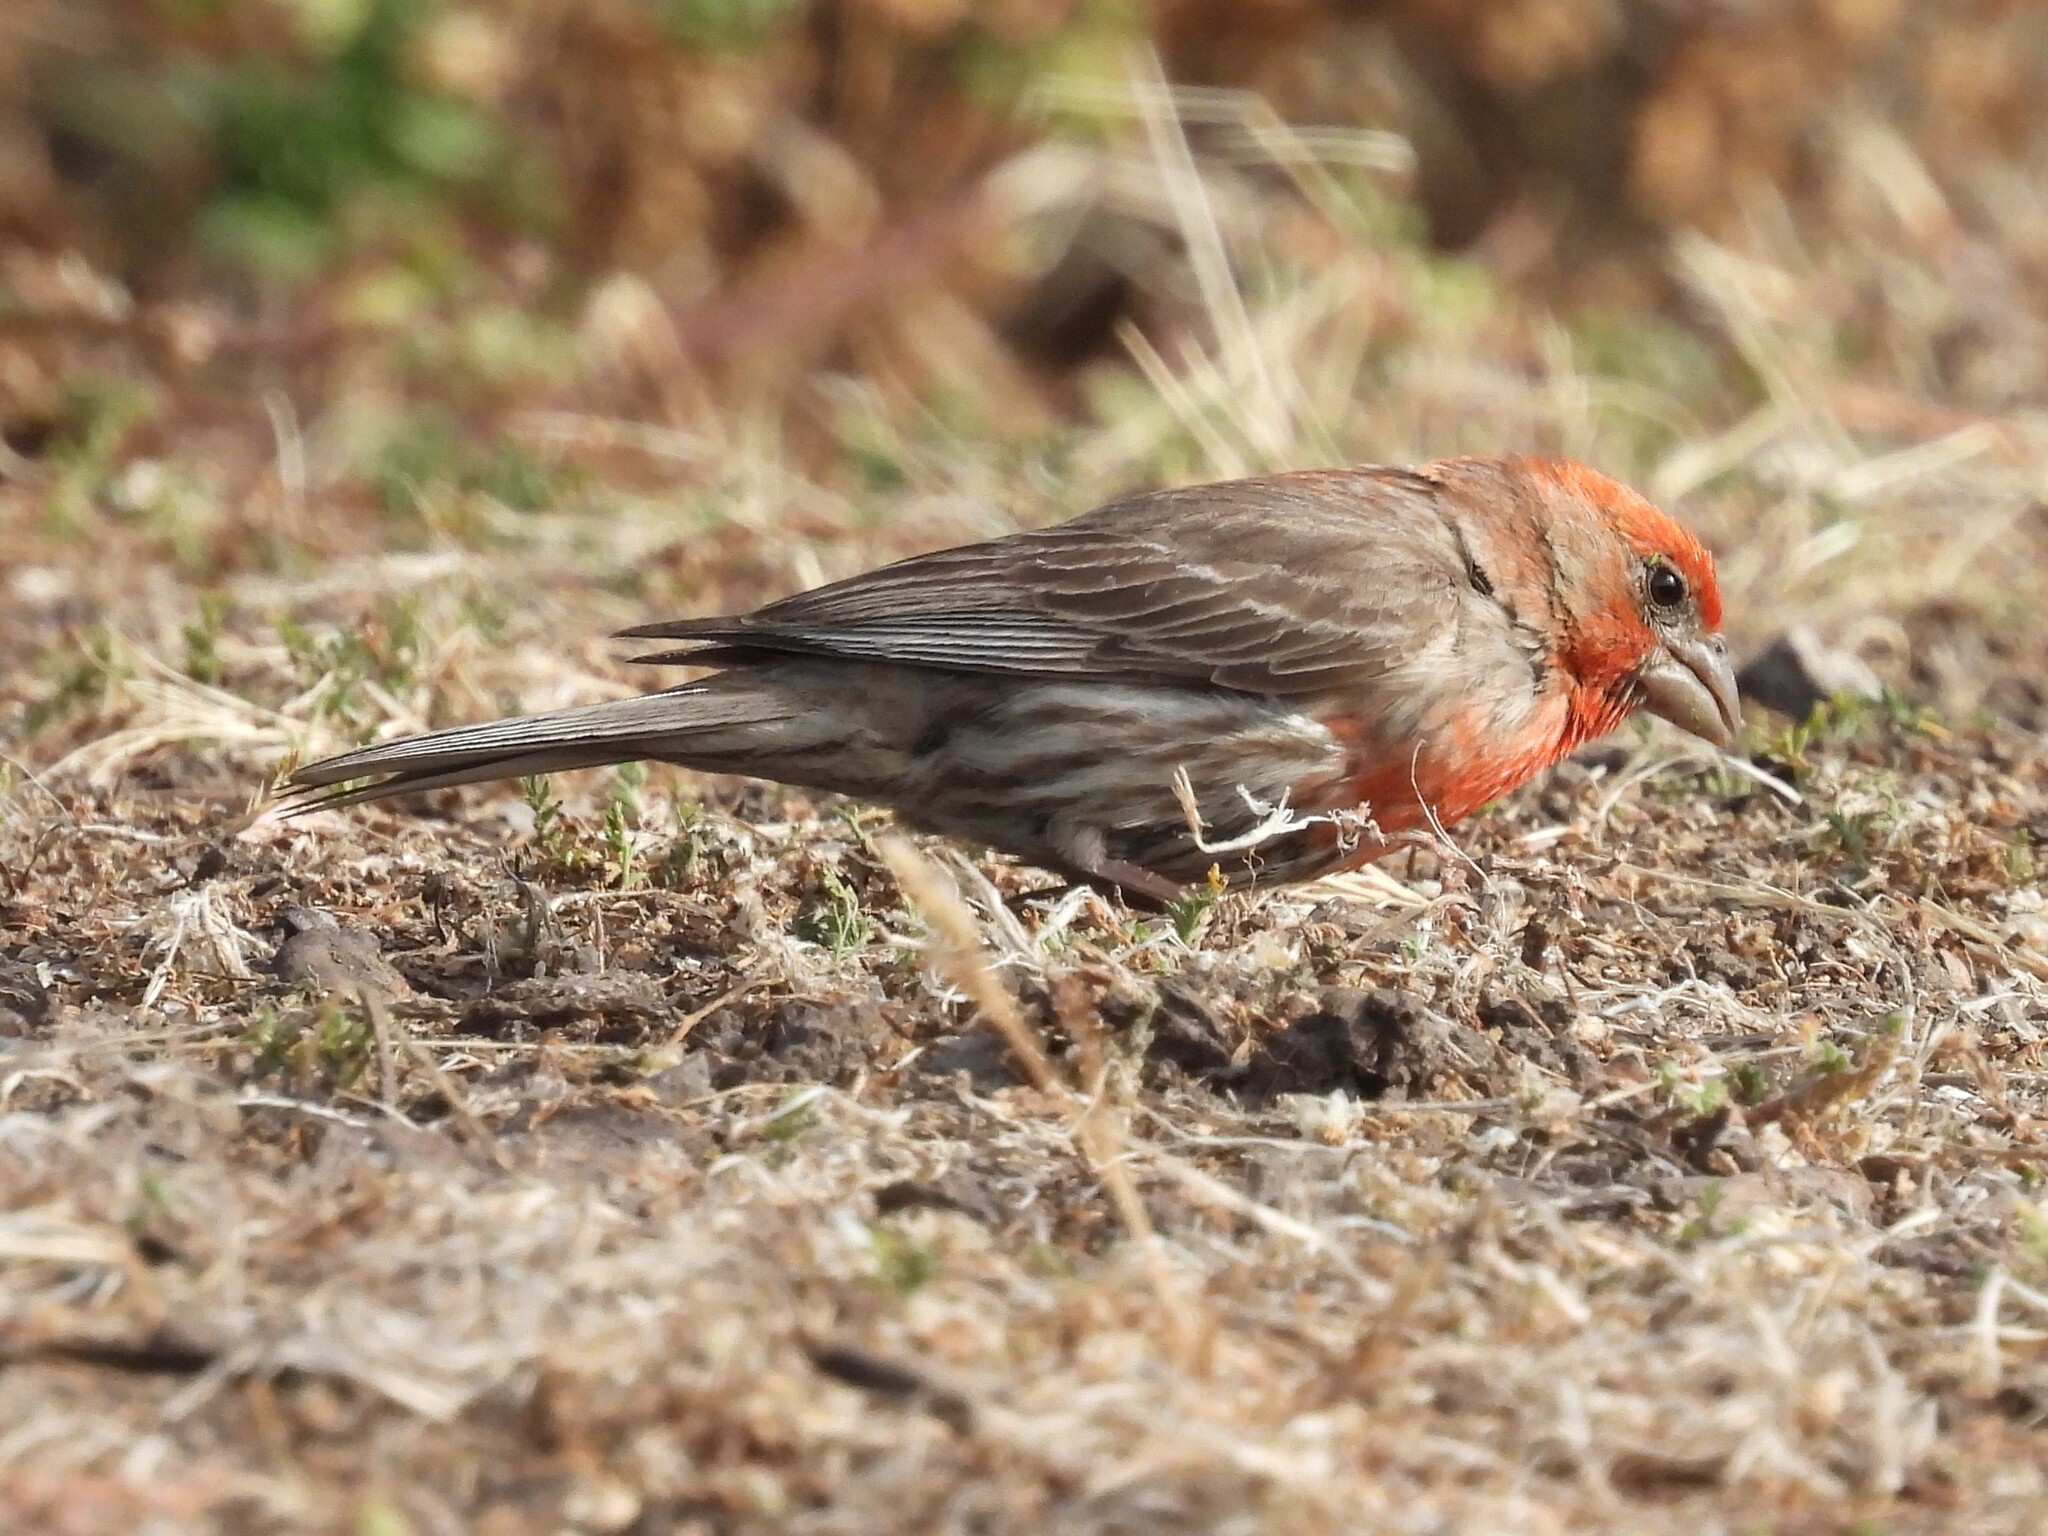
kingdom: Animalia
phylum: Chordata
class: Aves
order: Passeriformes
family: Fringillidae
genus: Haemorhous
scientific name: Haemorhous mexicanus
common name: House finch
